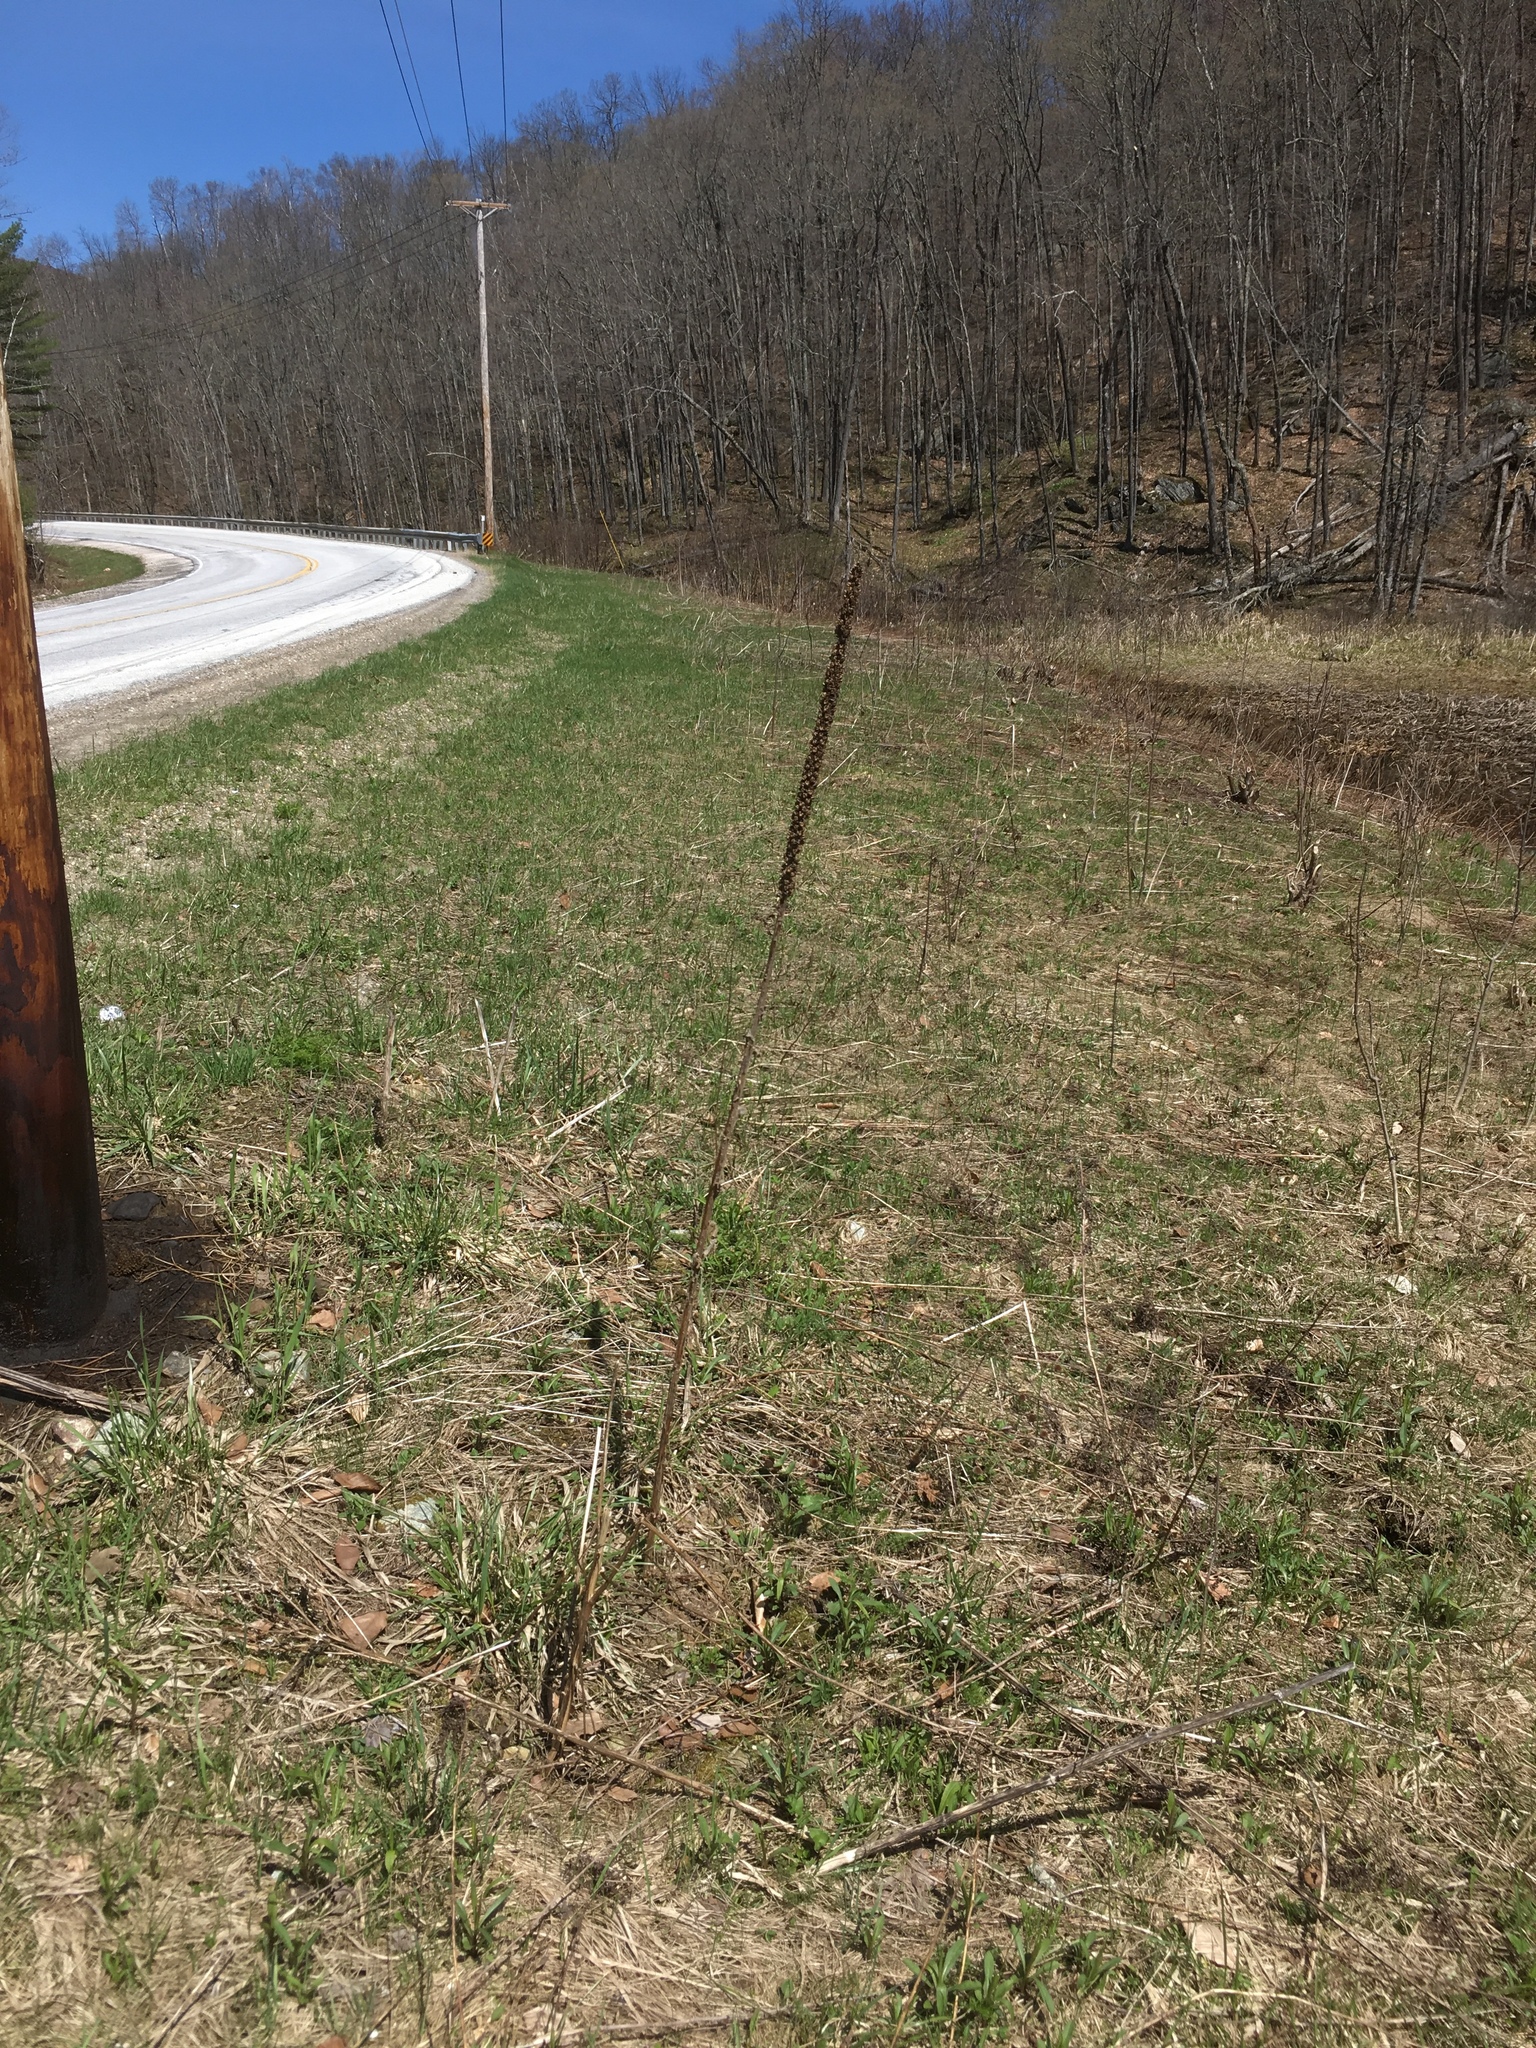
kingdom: Plantae
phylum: Tracheophyta
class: Magnoliopsida
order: Lamiales
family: Scrophulariaceae
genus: Verbascum
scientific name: Verbascum thapsus
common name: Common mullein
